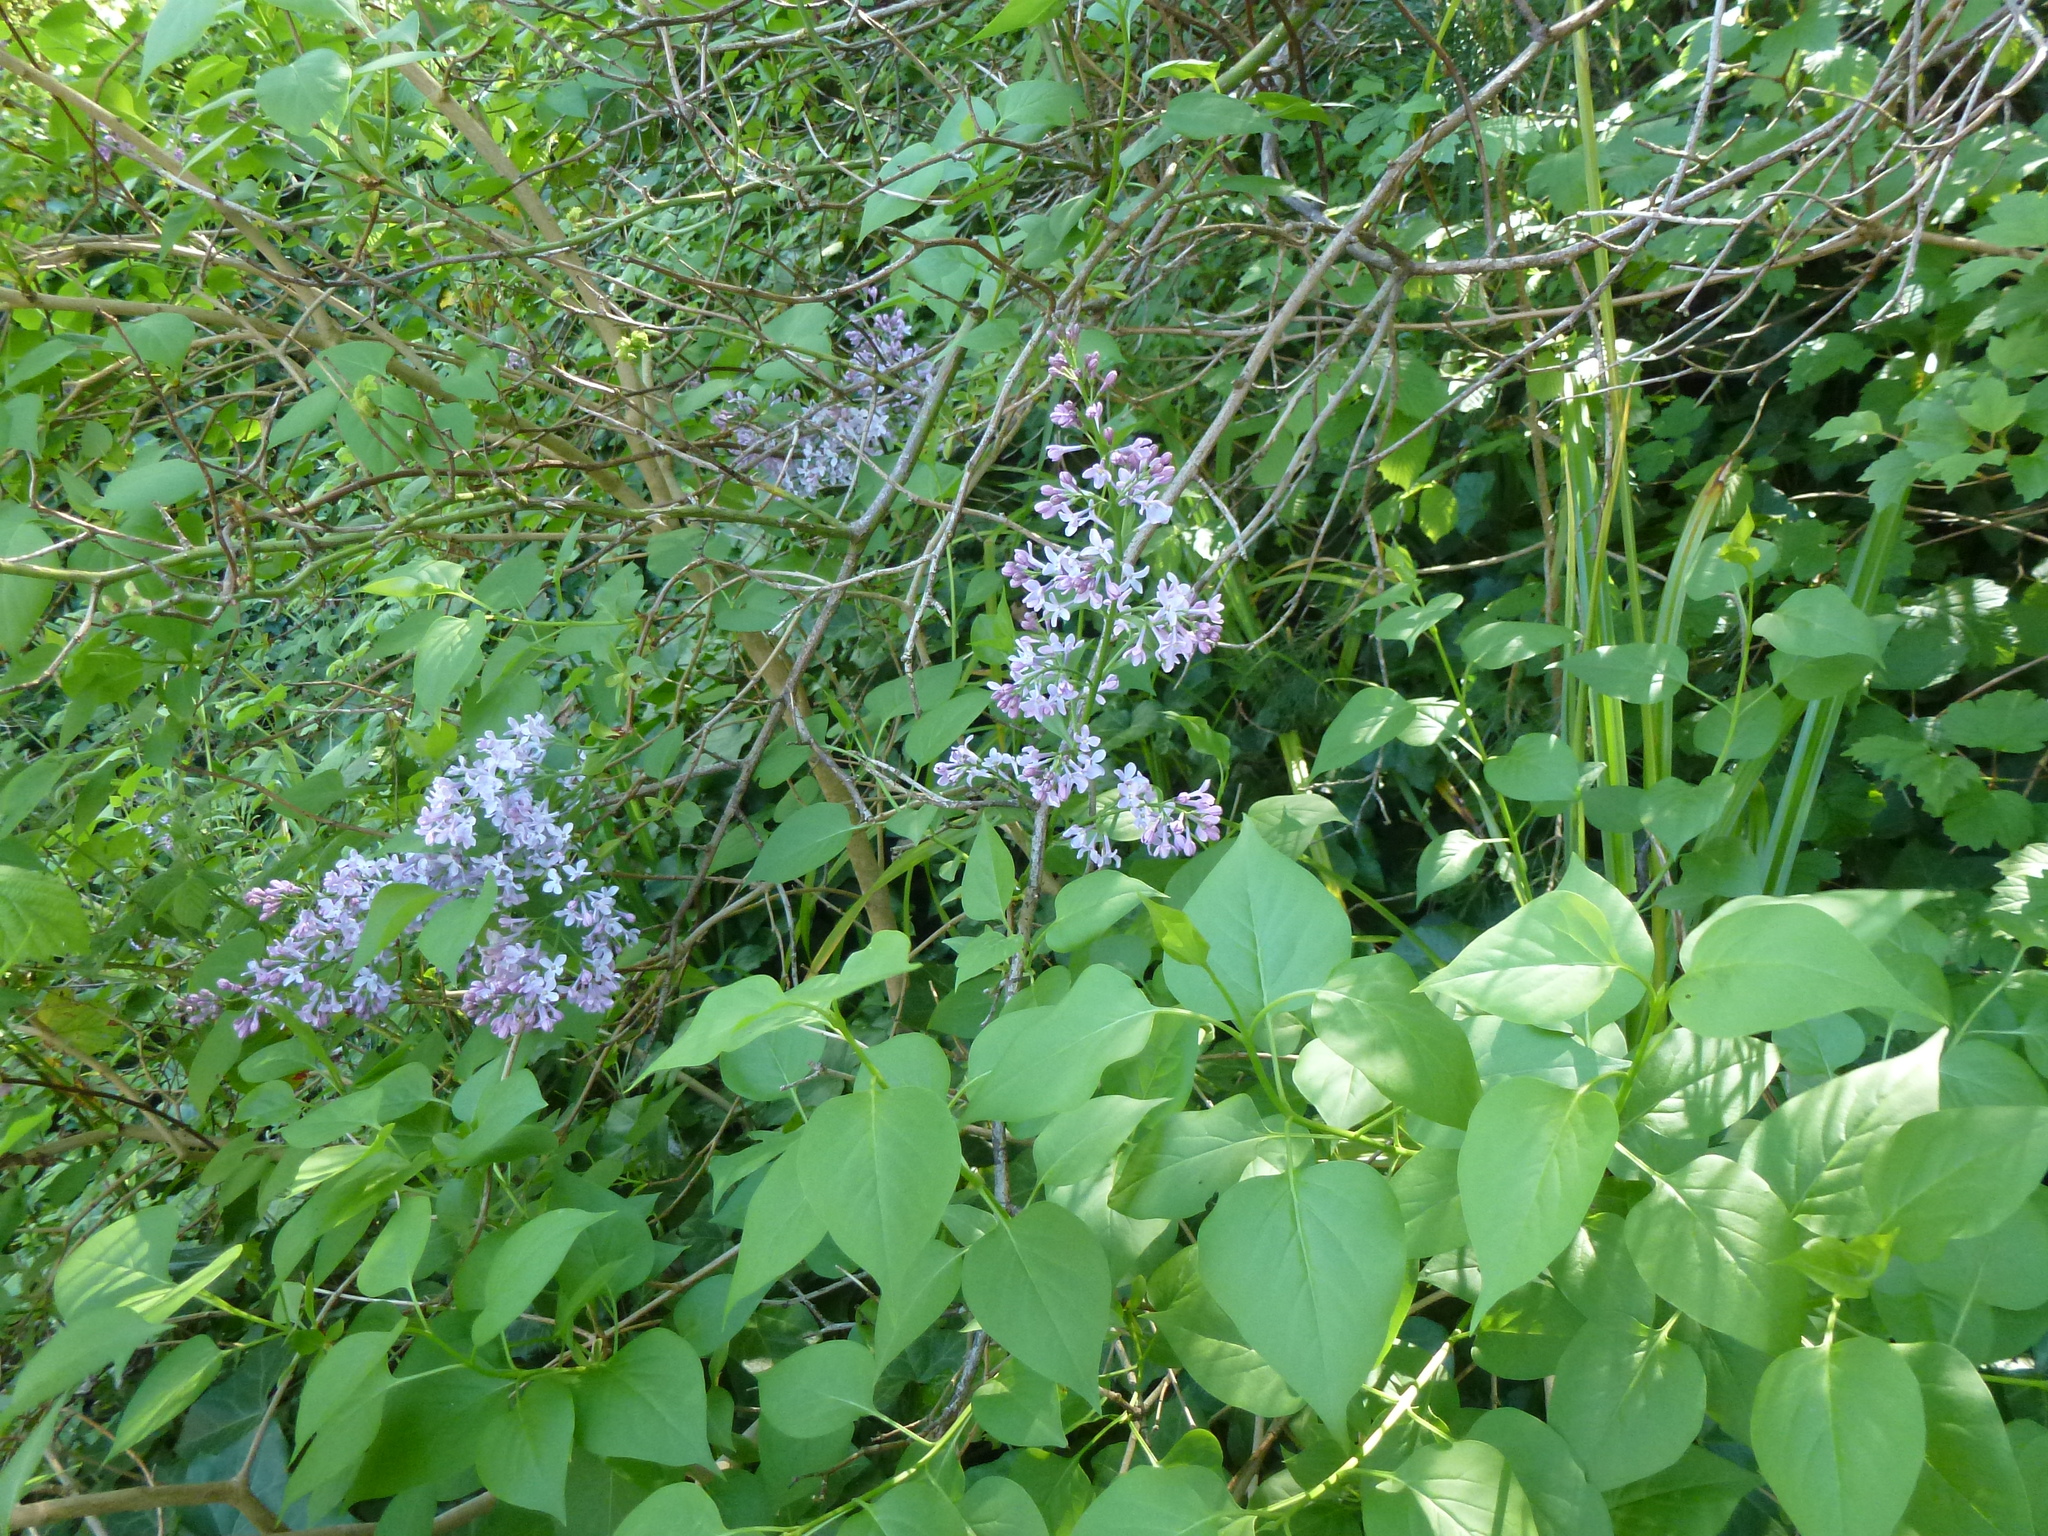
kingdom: Plantae
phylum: Tracheophyta
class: Magnoliopsida
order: Lamiales
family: Oleaceae
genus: Syringa
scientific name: Syringa vulgaris
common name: Common lilac
